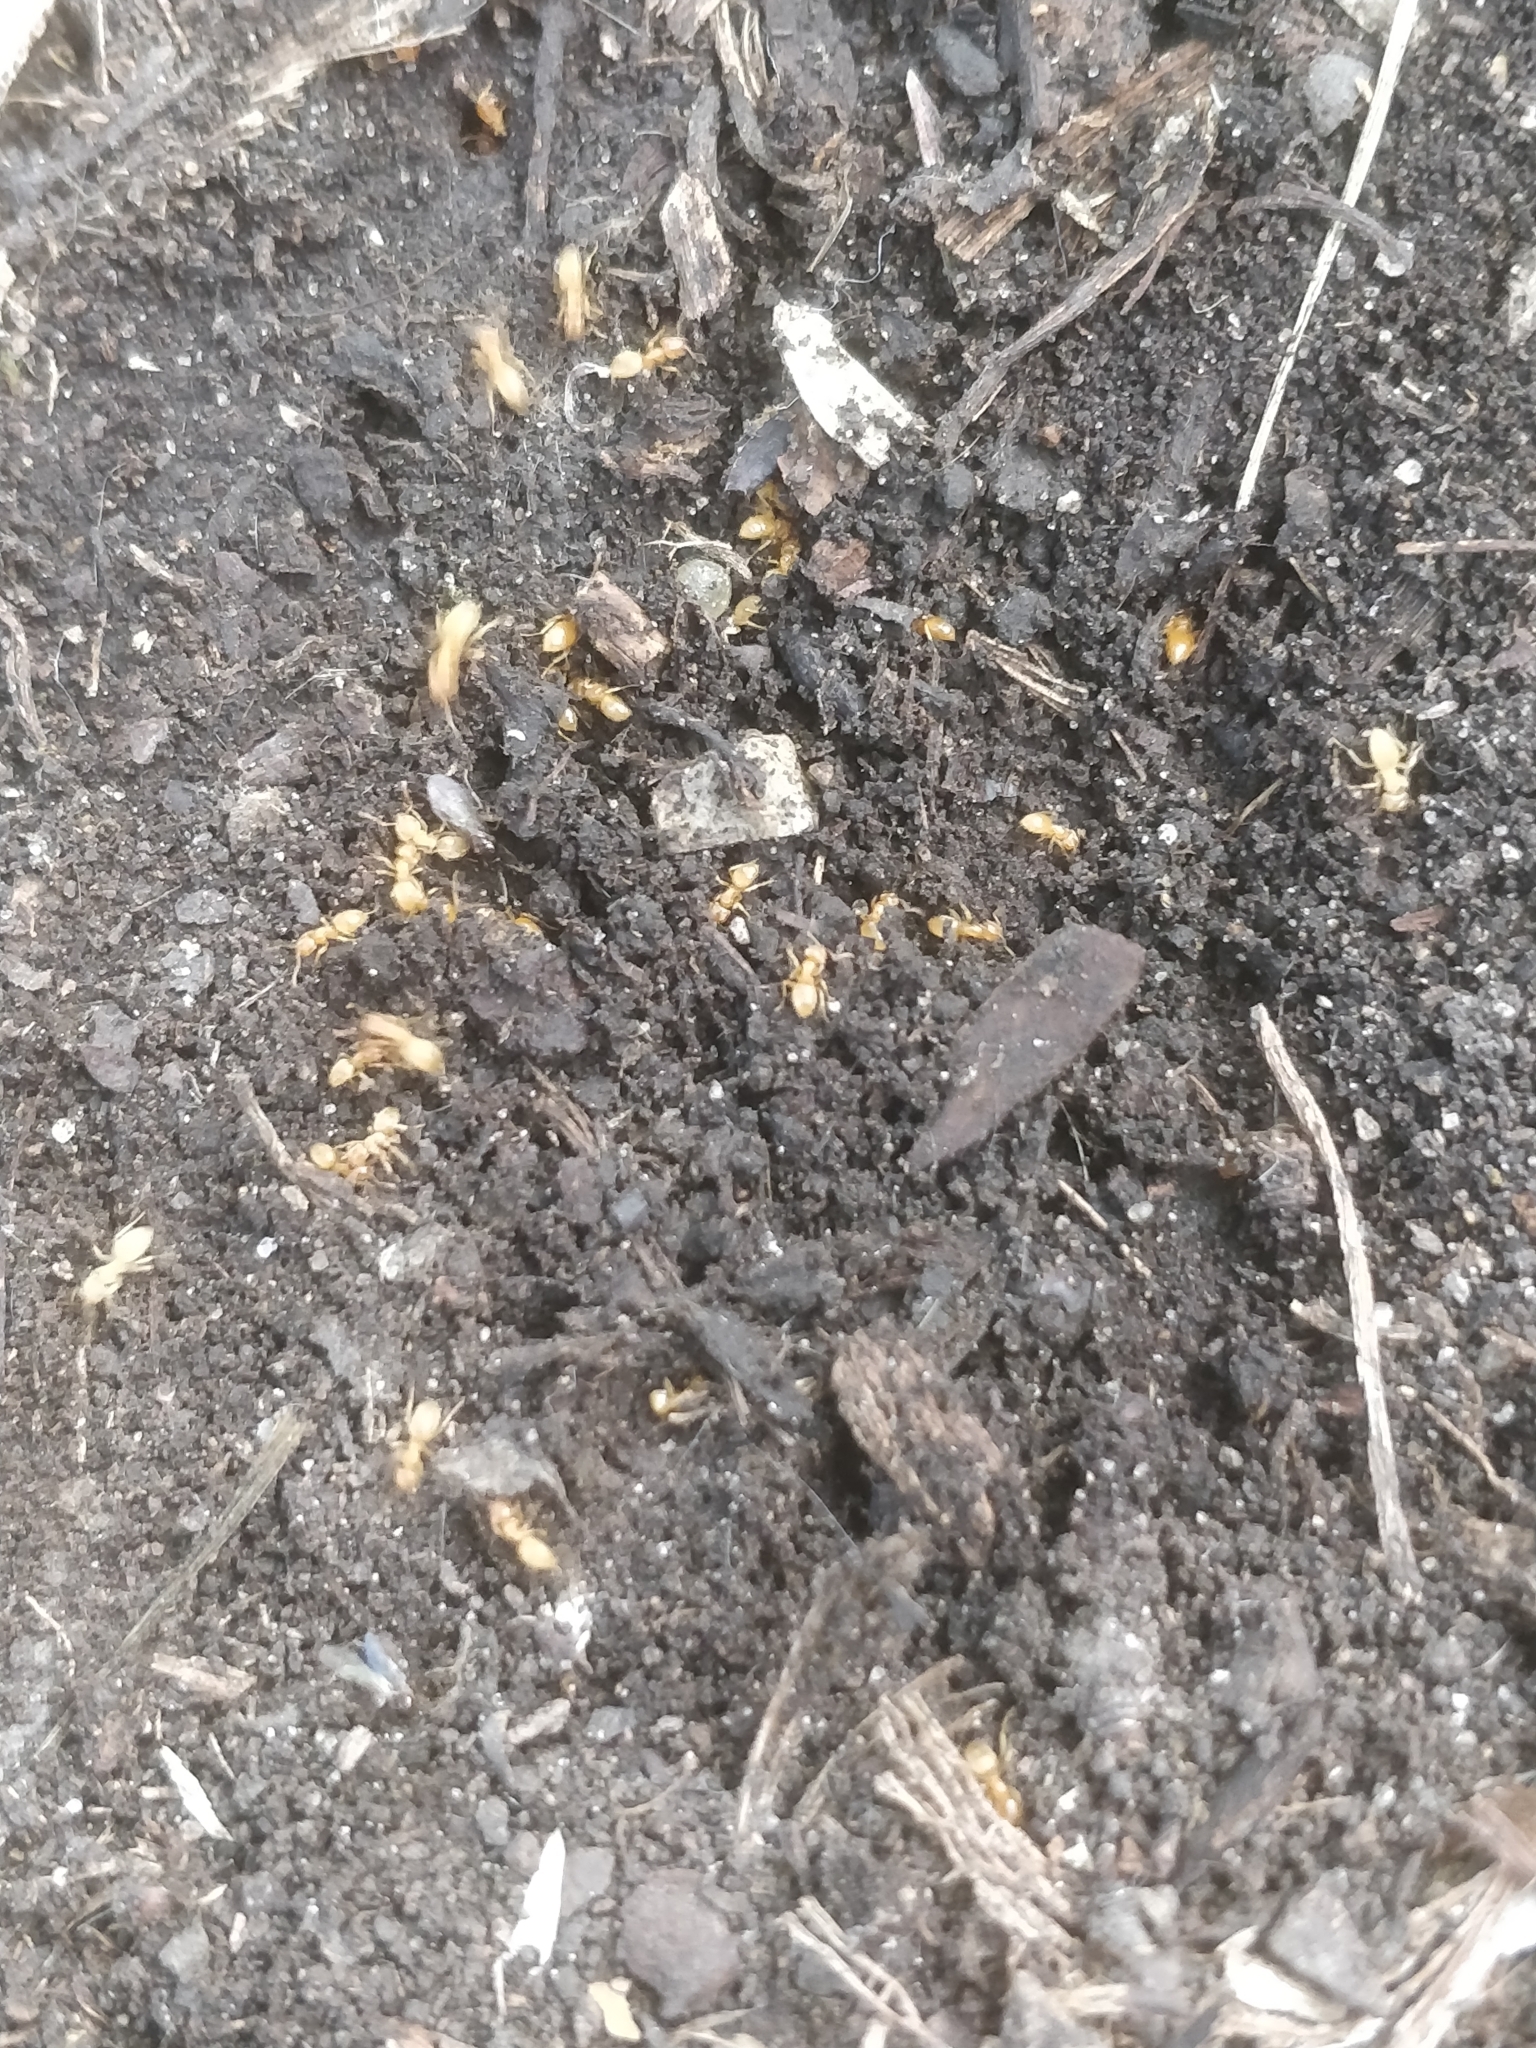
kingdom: Animalia
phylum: Arthropoda
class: Insecta
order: Hymenoptera
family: Formicidae
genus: Lasius
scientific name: Lasius
